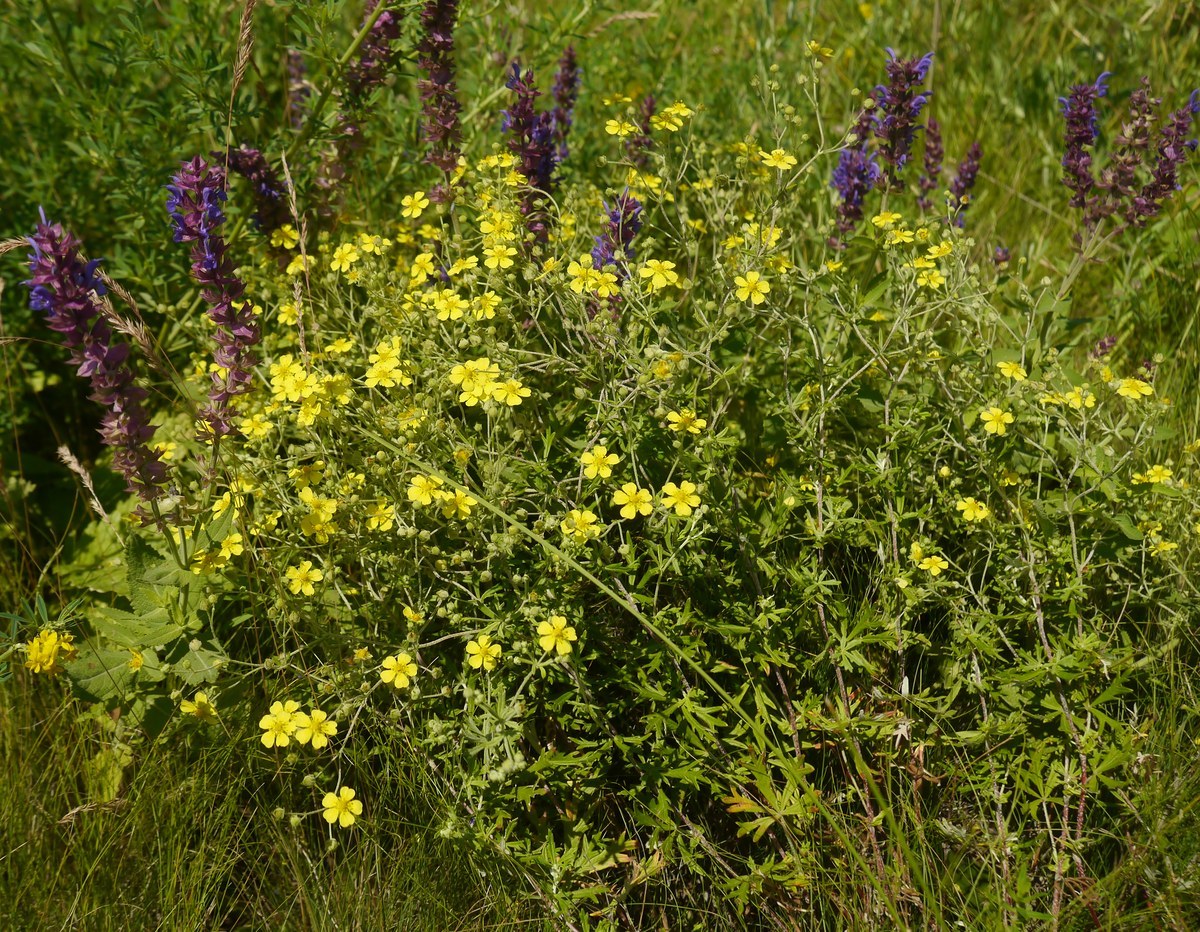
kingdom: Plantae
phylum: Tracheophyta
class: Magnoliopsida
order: Rosales
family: Rosaceae
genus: Potentilla
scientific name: Potentilla argentea
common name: Hoary cinquefoil
